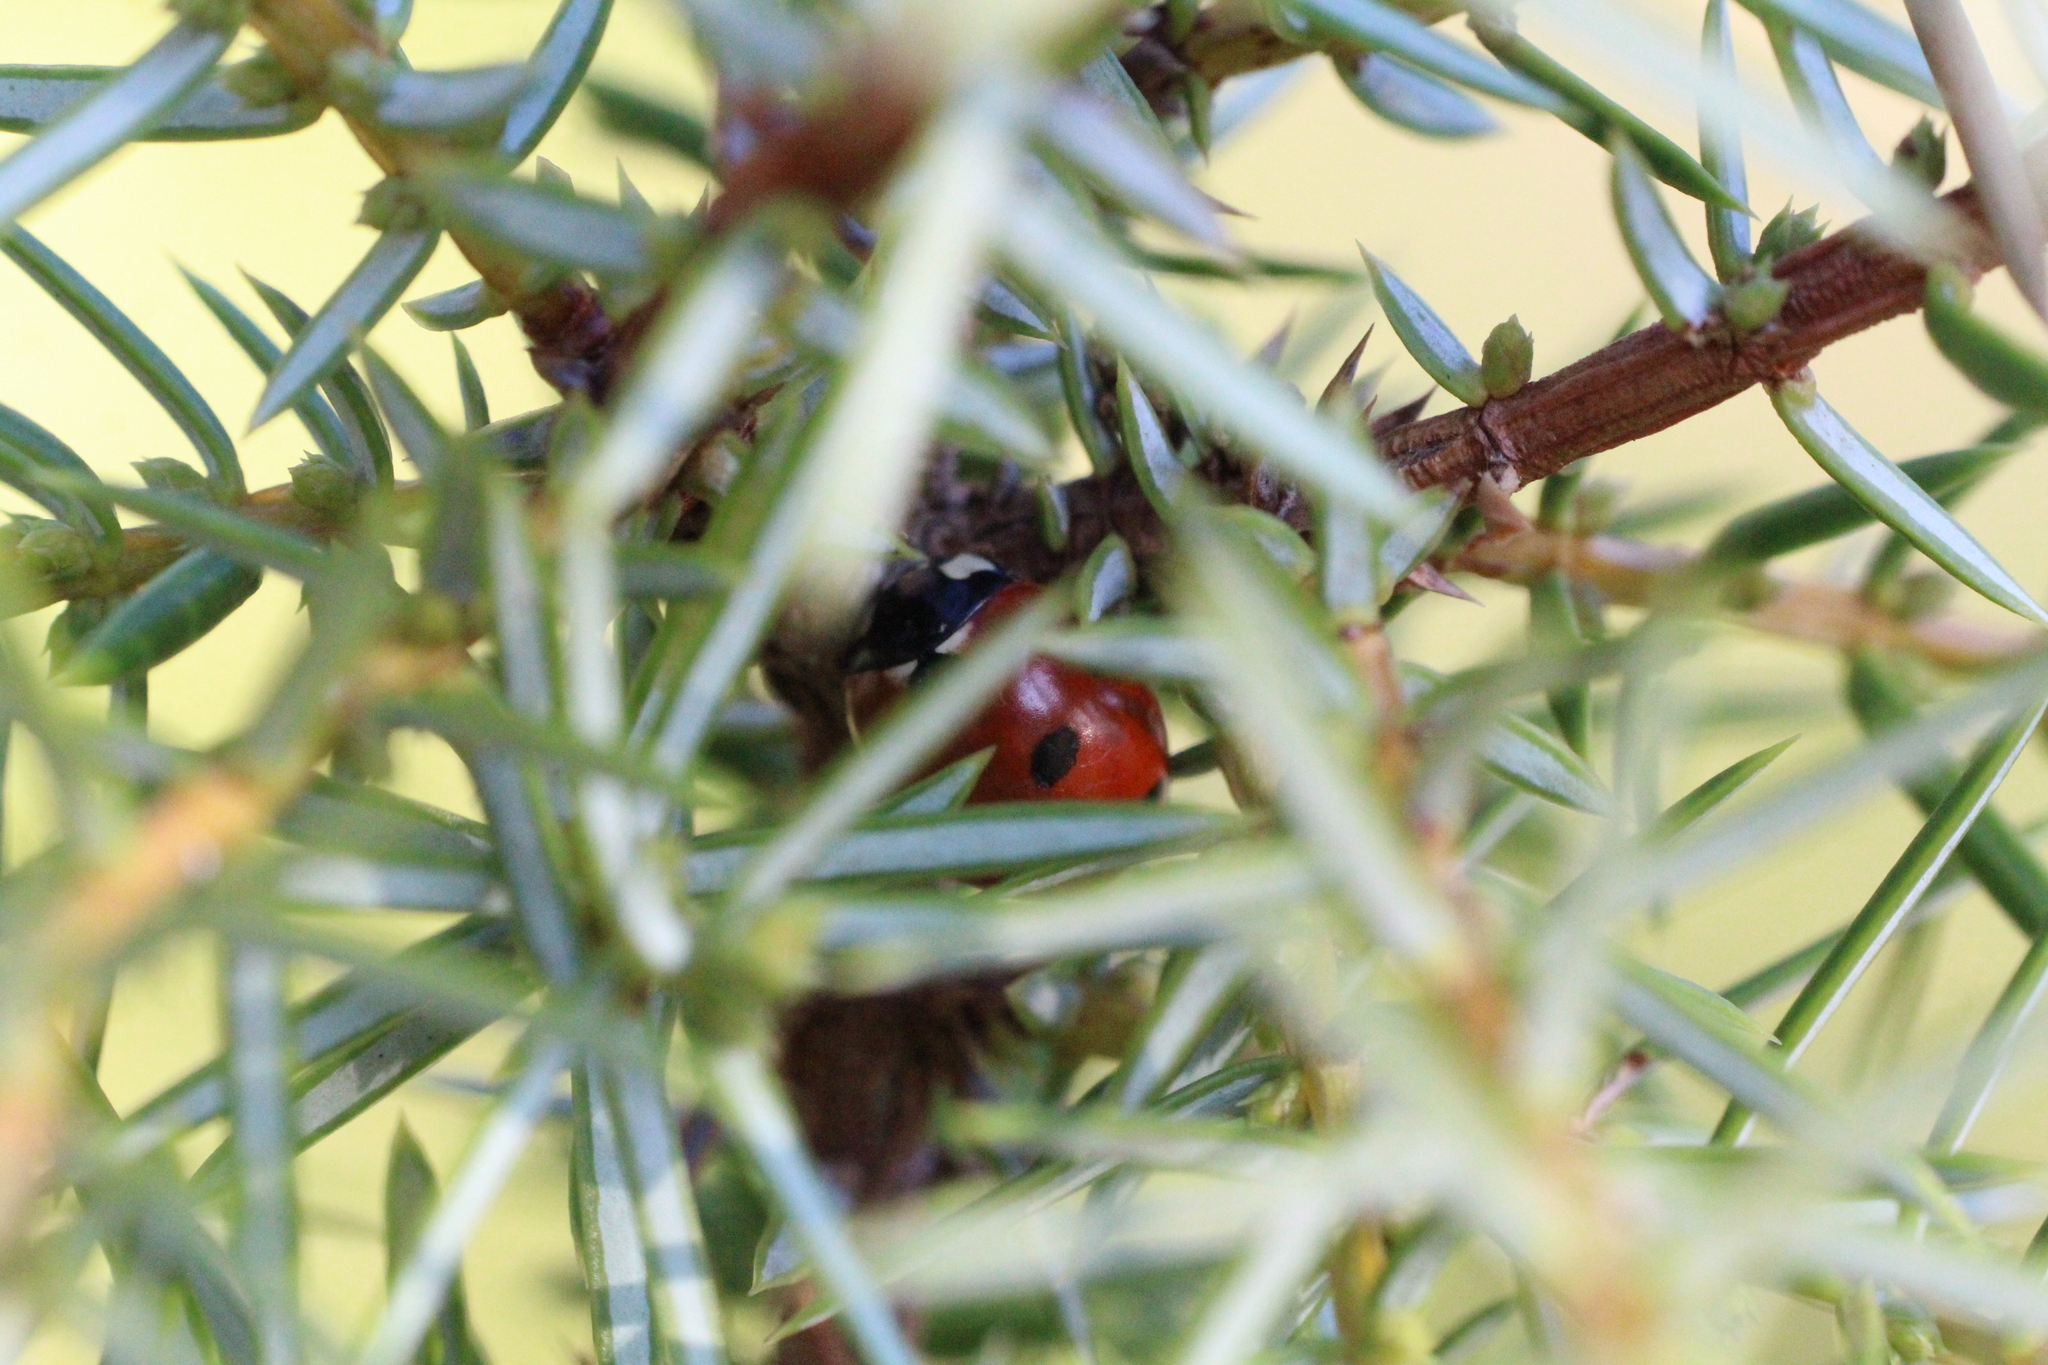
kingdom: Animalia
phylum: Arthropoda
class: Insecta
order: Coleoptera
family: Coccinellidae
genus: Coccinella
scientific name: Coccinella septempunctata
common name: Sevenspotted lady beetle
